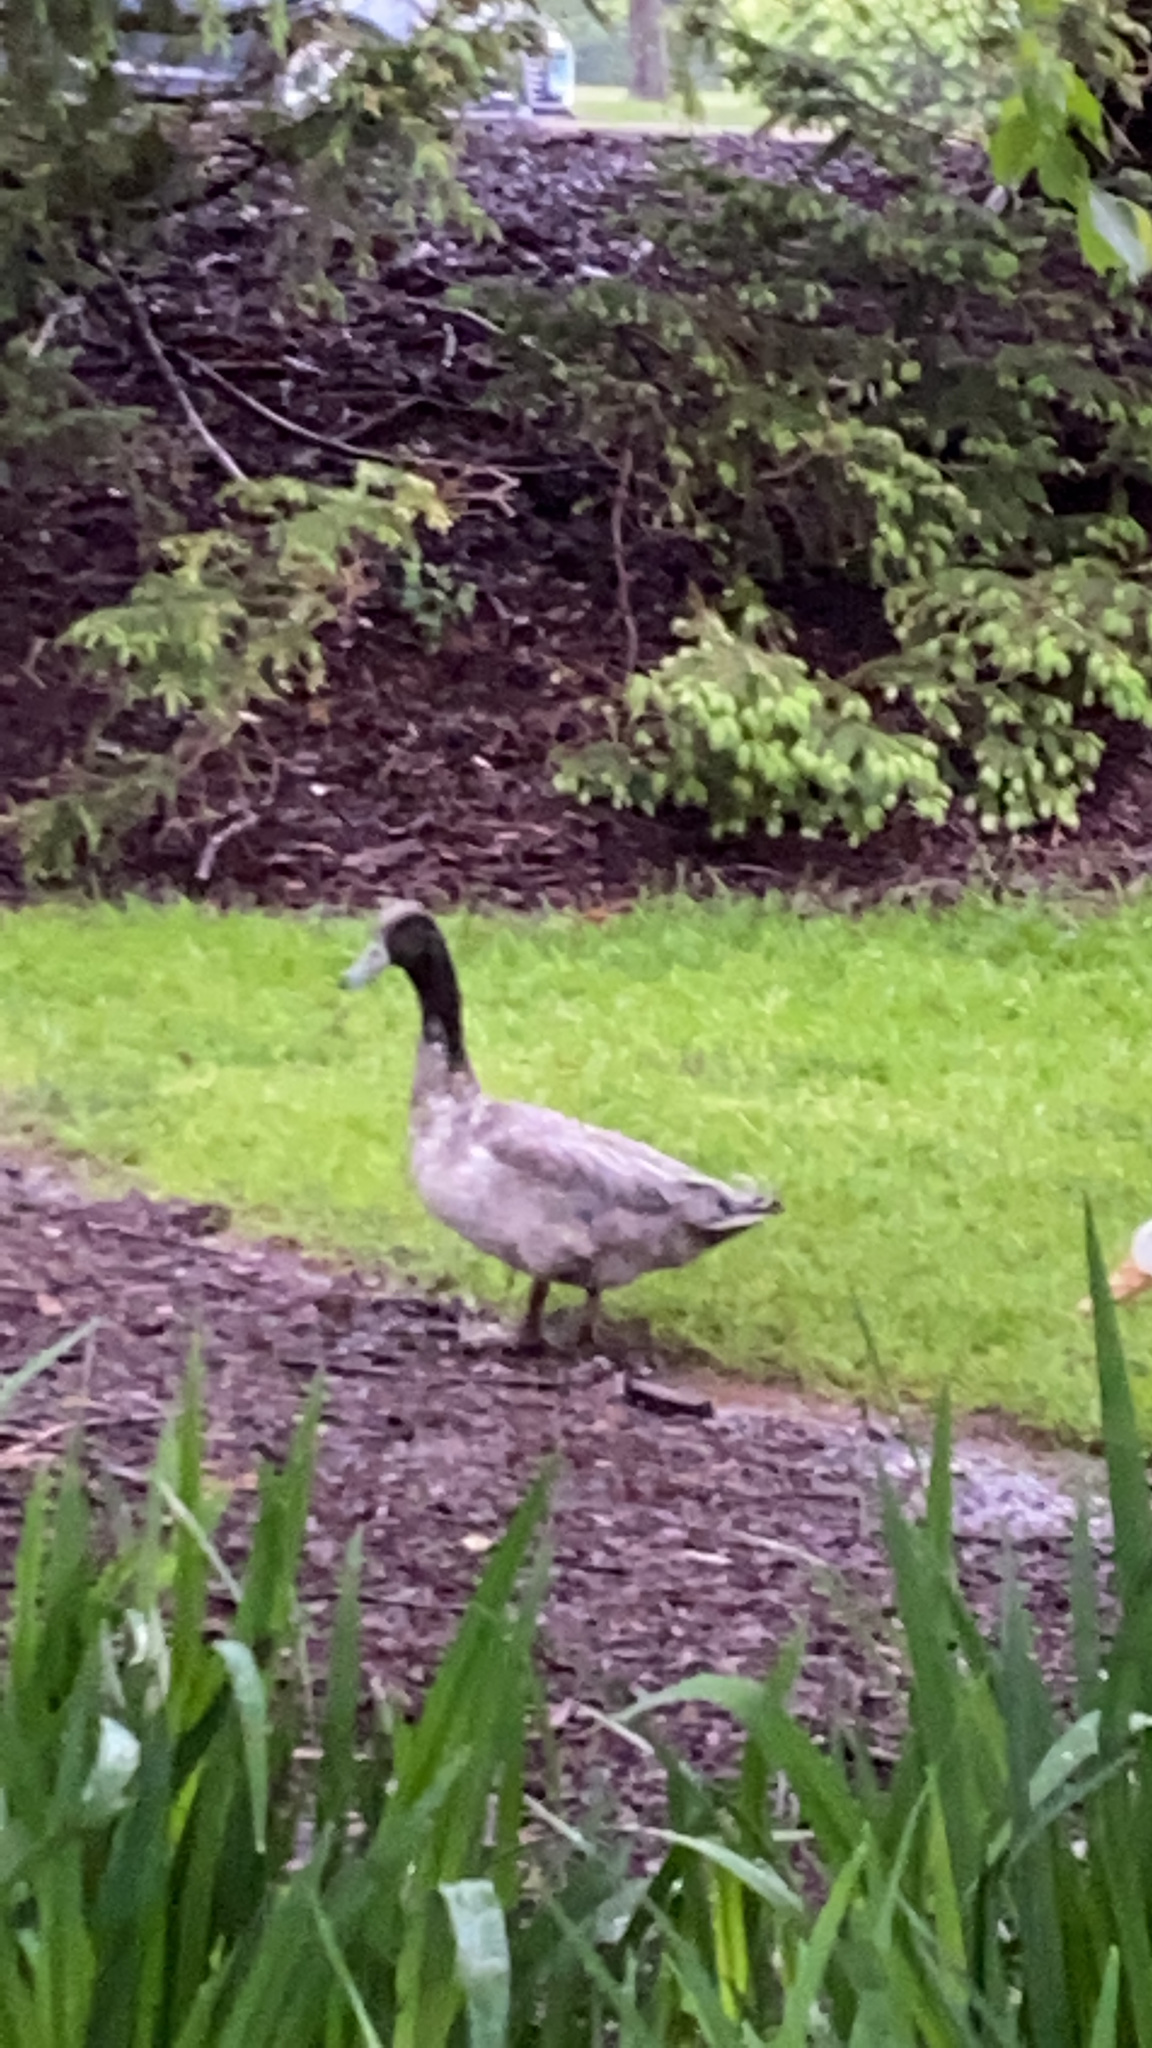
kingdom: Animalia
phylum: Chordata
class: Aves
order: Anseriformes
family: Anatidae
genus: Anas
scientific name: Anas platyrhynchos
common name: Mallard
